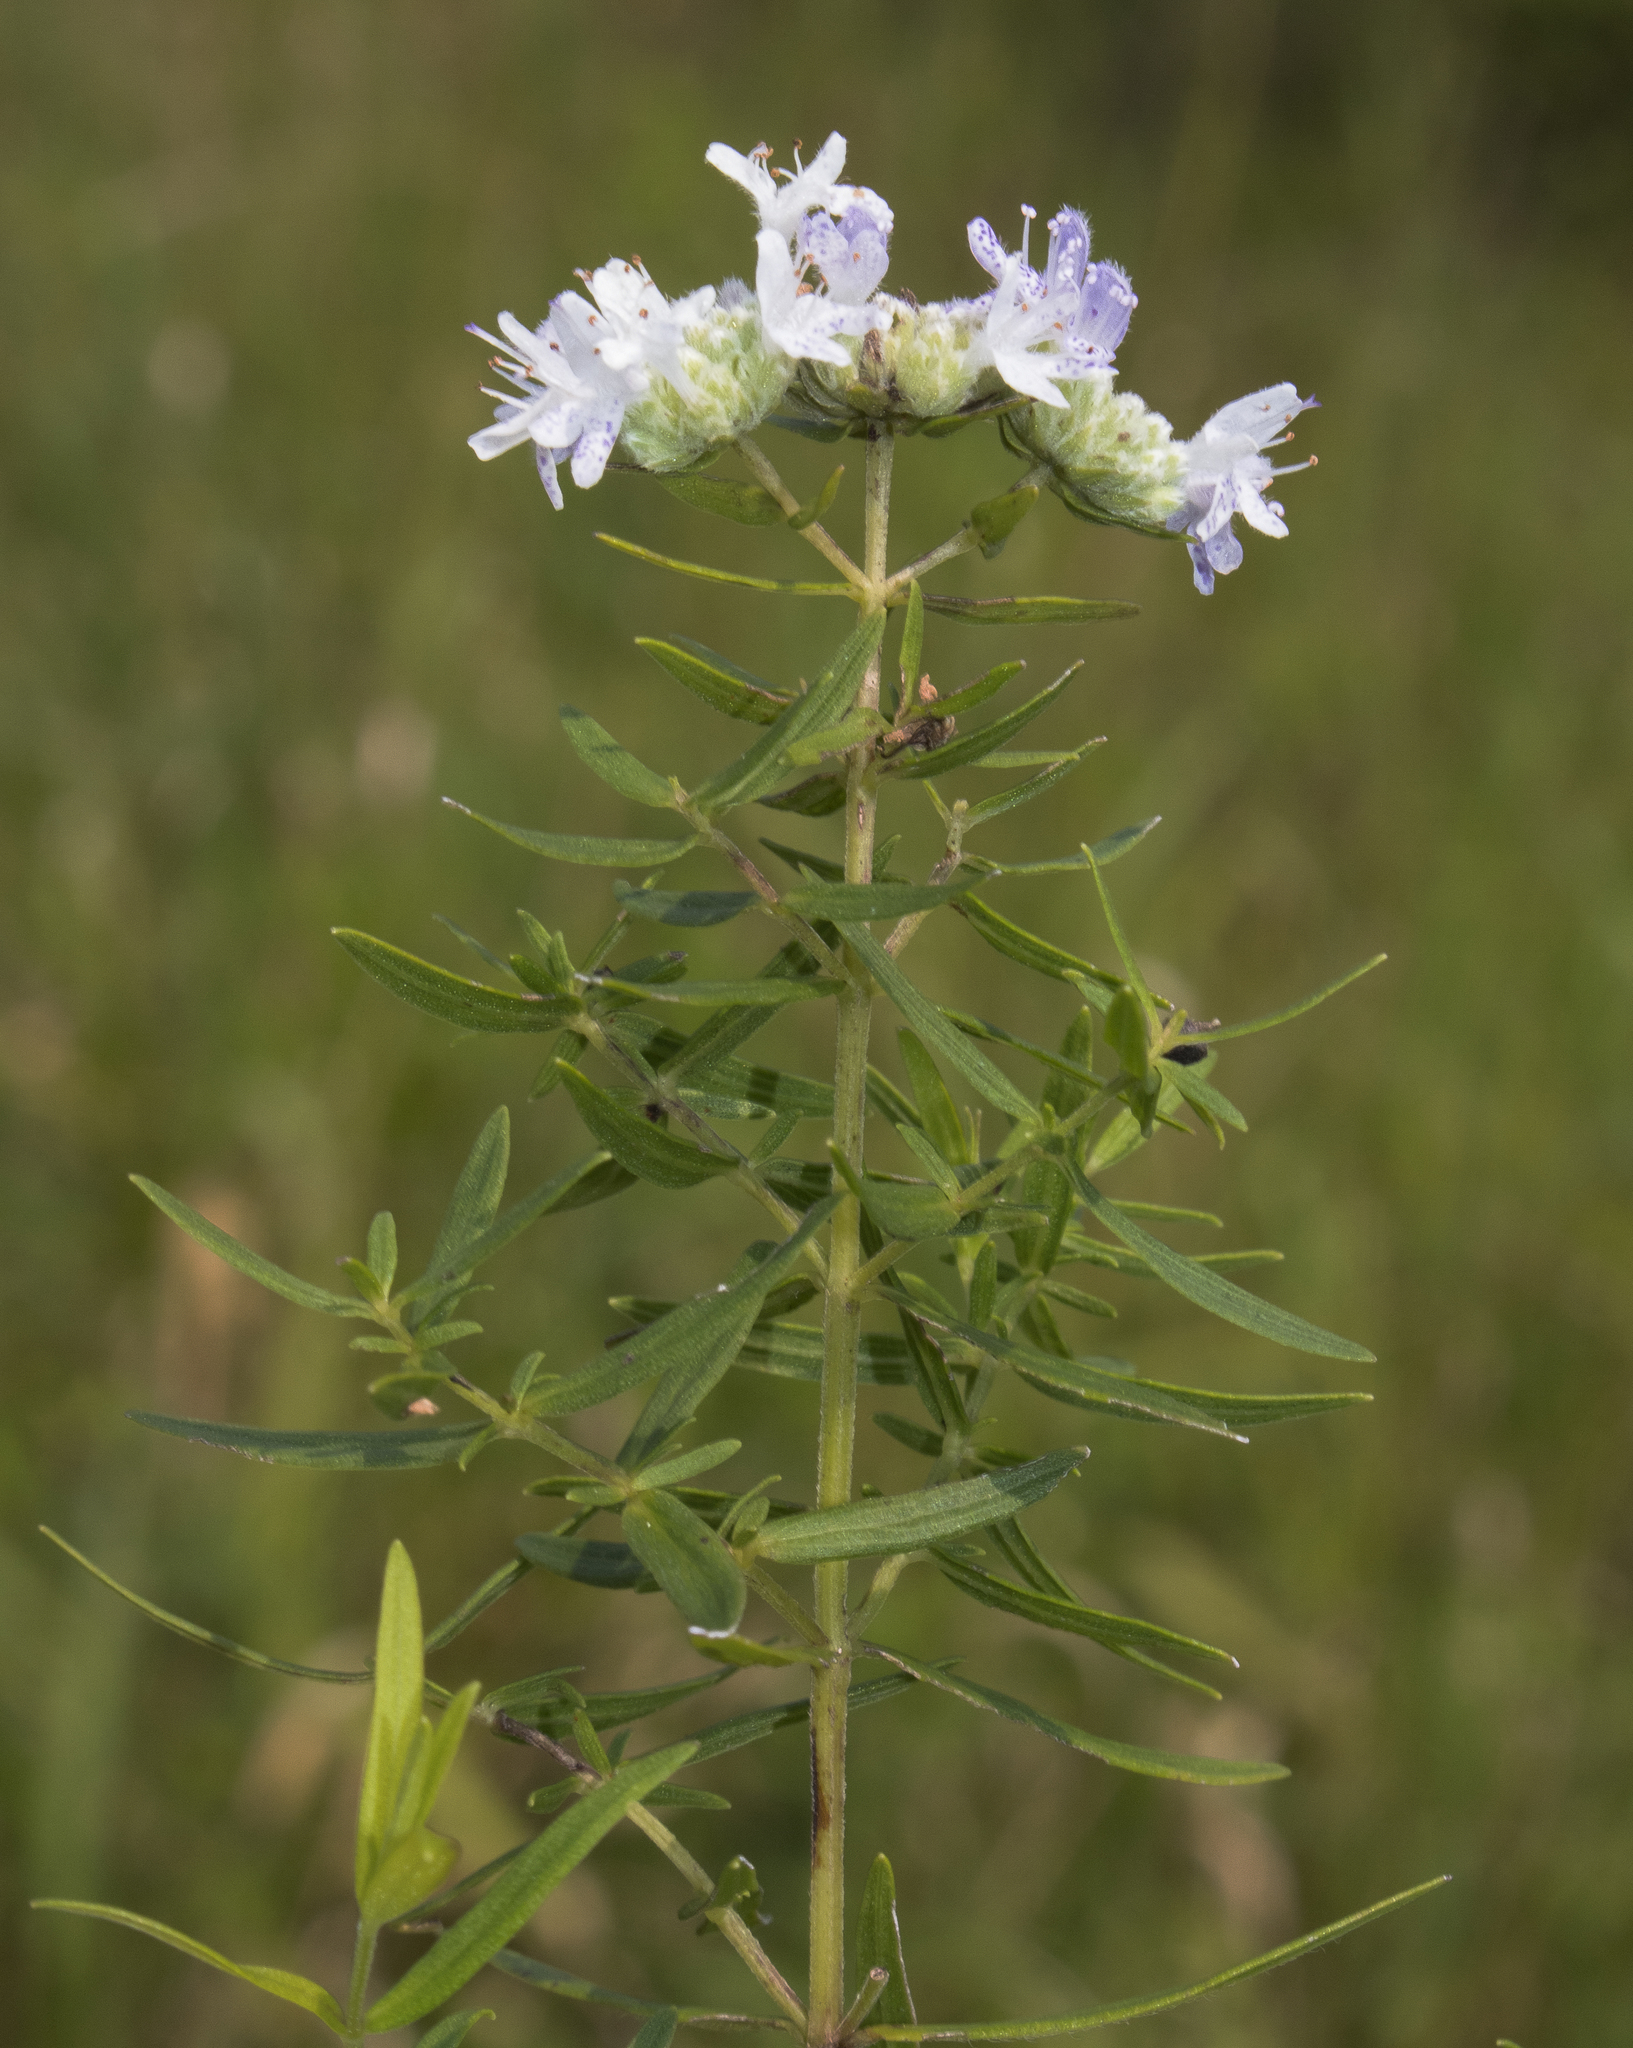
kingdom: Plantae
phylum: Tracheophyta
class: Magnoliopsida
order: Lamiales
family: Lamiaceae
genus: Pycnanthemum
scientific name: Pycnanthemum virginianum
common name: Virginia mountain-mint
